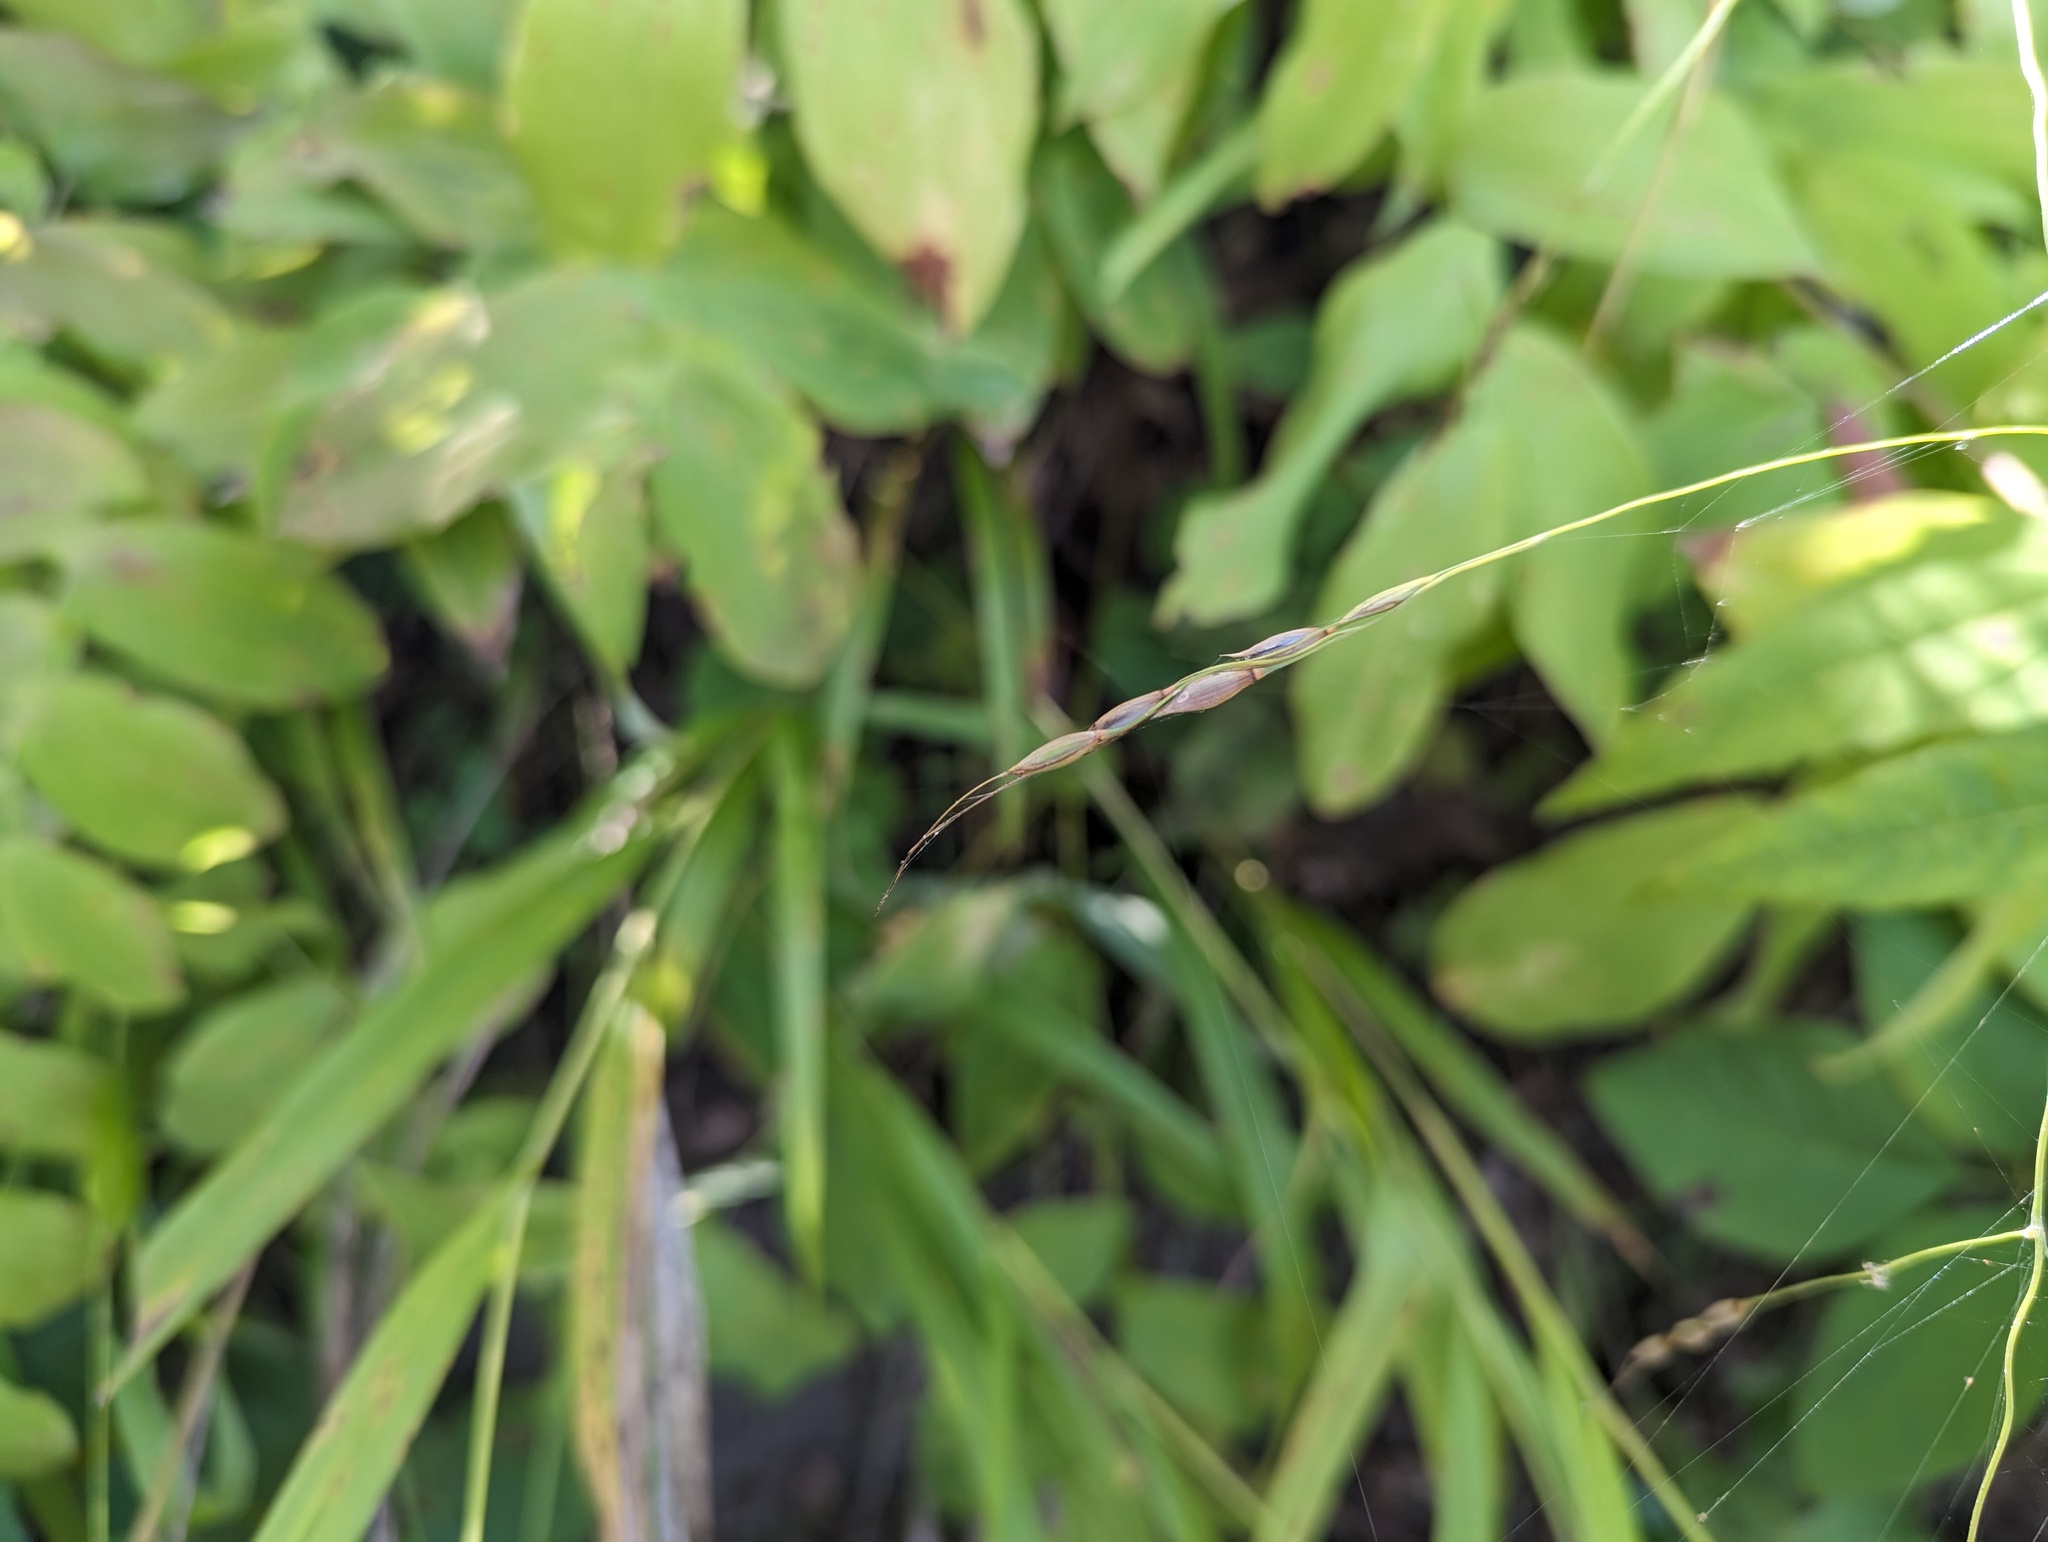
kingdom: Plantae
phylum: Tracheophyta
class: Liliopsida
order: Poales
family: Poaceae
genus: Patis
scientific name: Patis racemosa
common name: Black-fruited mountain rice
